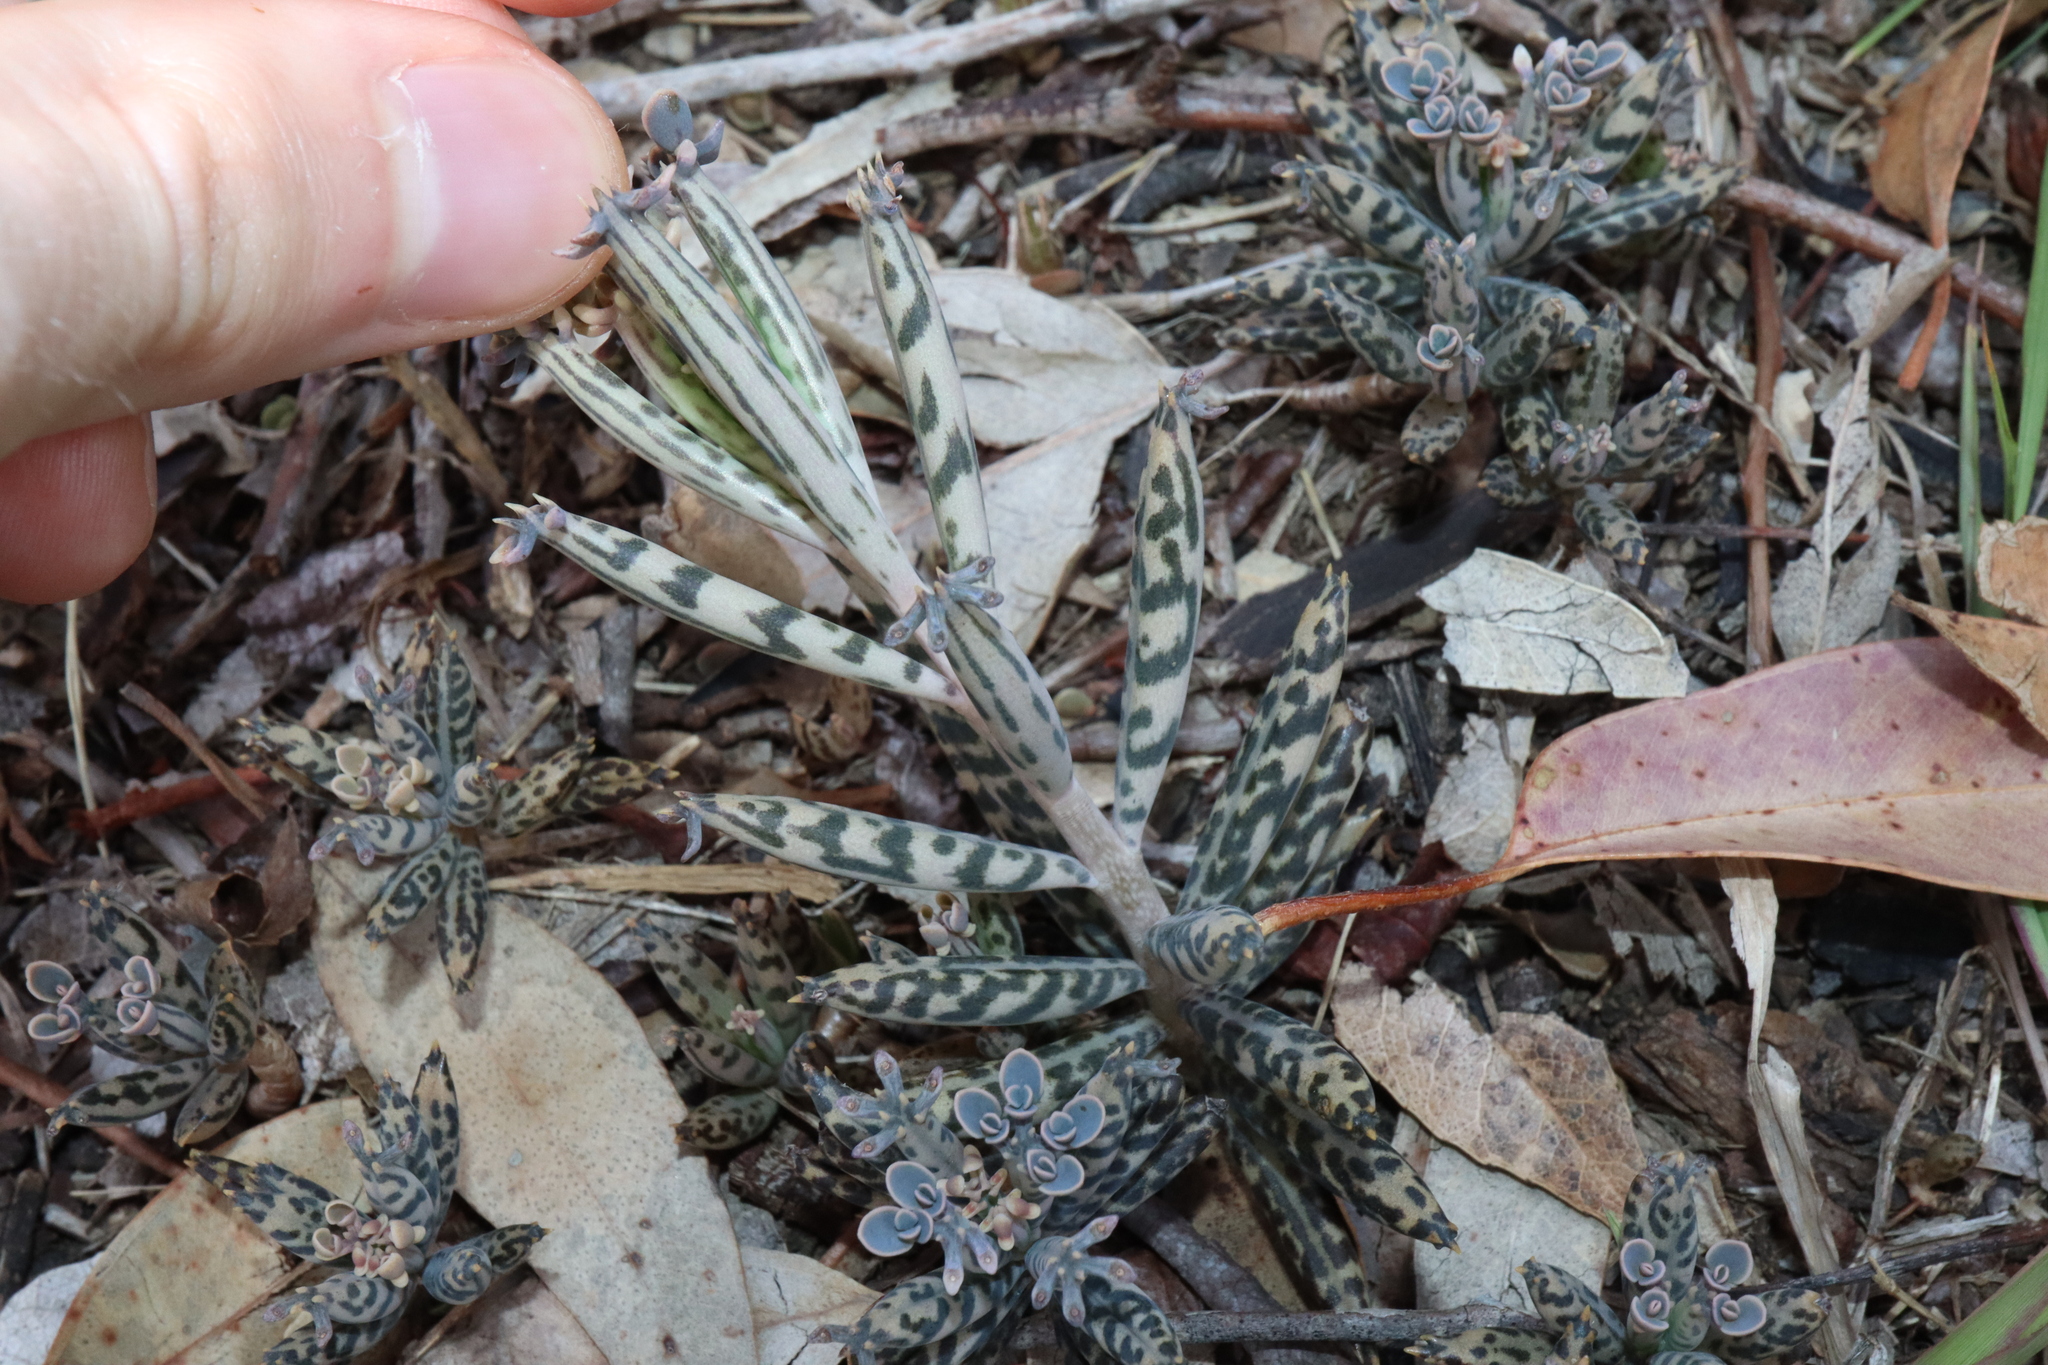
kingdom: Plantae
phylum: Tracheophyta
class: Magnoliopsida
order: Saxifragales
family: Crassulaceae
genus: Kalanchoe
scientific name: Kalanchoe delagoensis
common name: Chandelier plant
